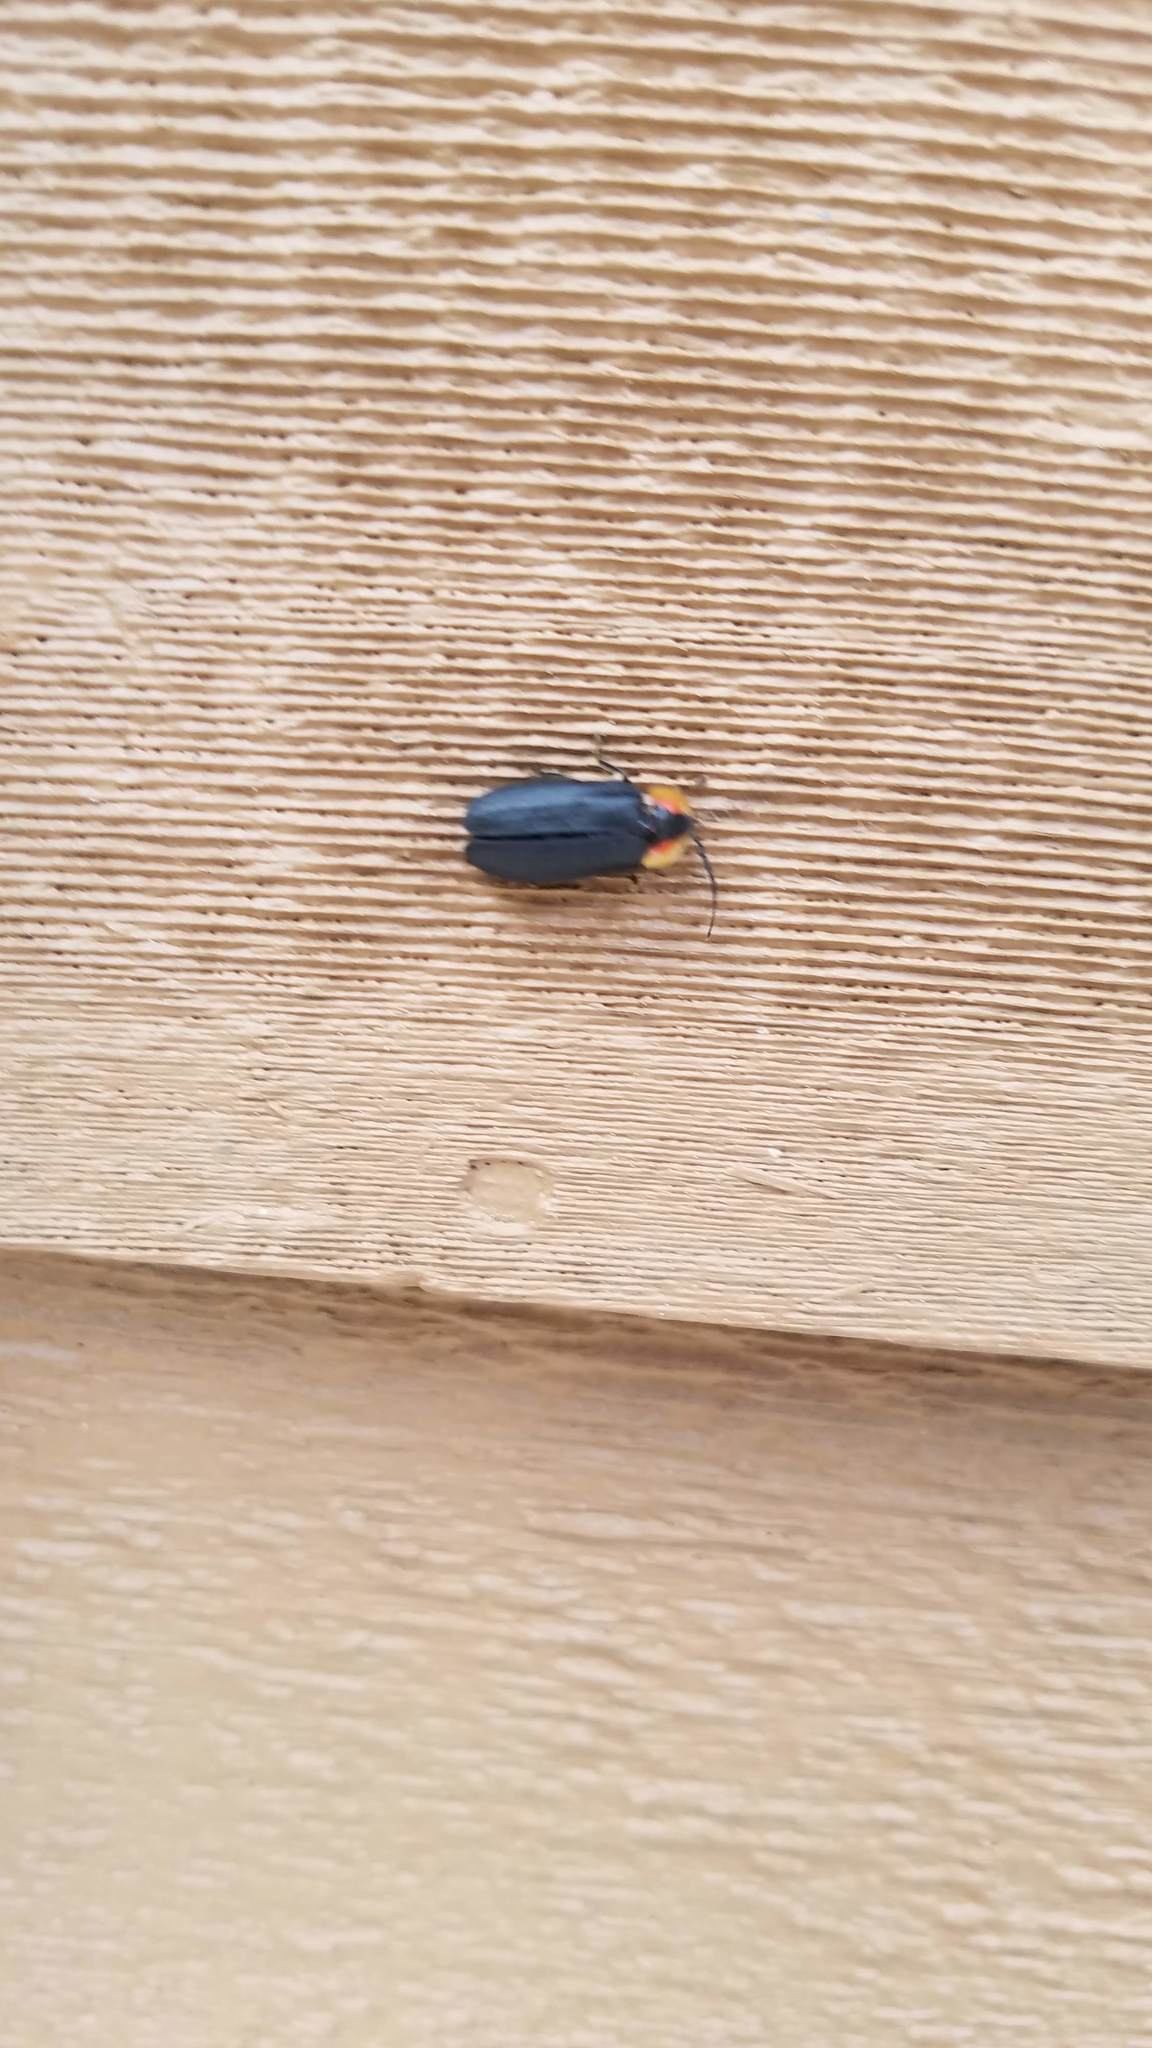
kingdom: Animalia
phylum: Arthropoda
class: Insecta
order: Coleoptera
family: Lampyridae
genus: Lucidota
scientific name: Lucidota atra
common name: Black firefly
